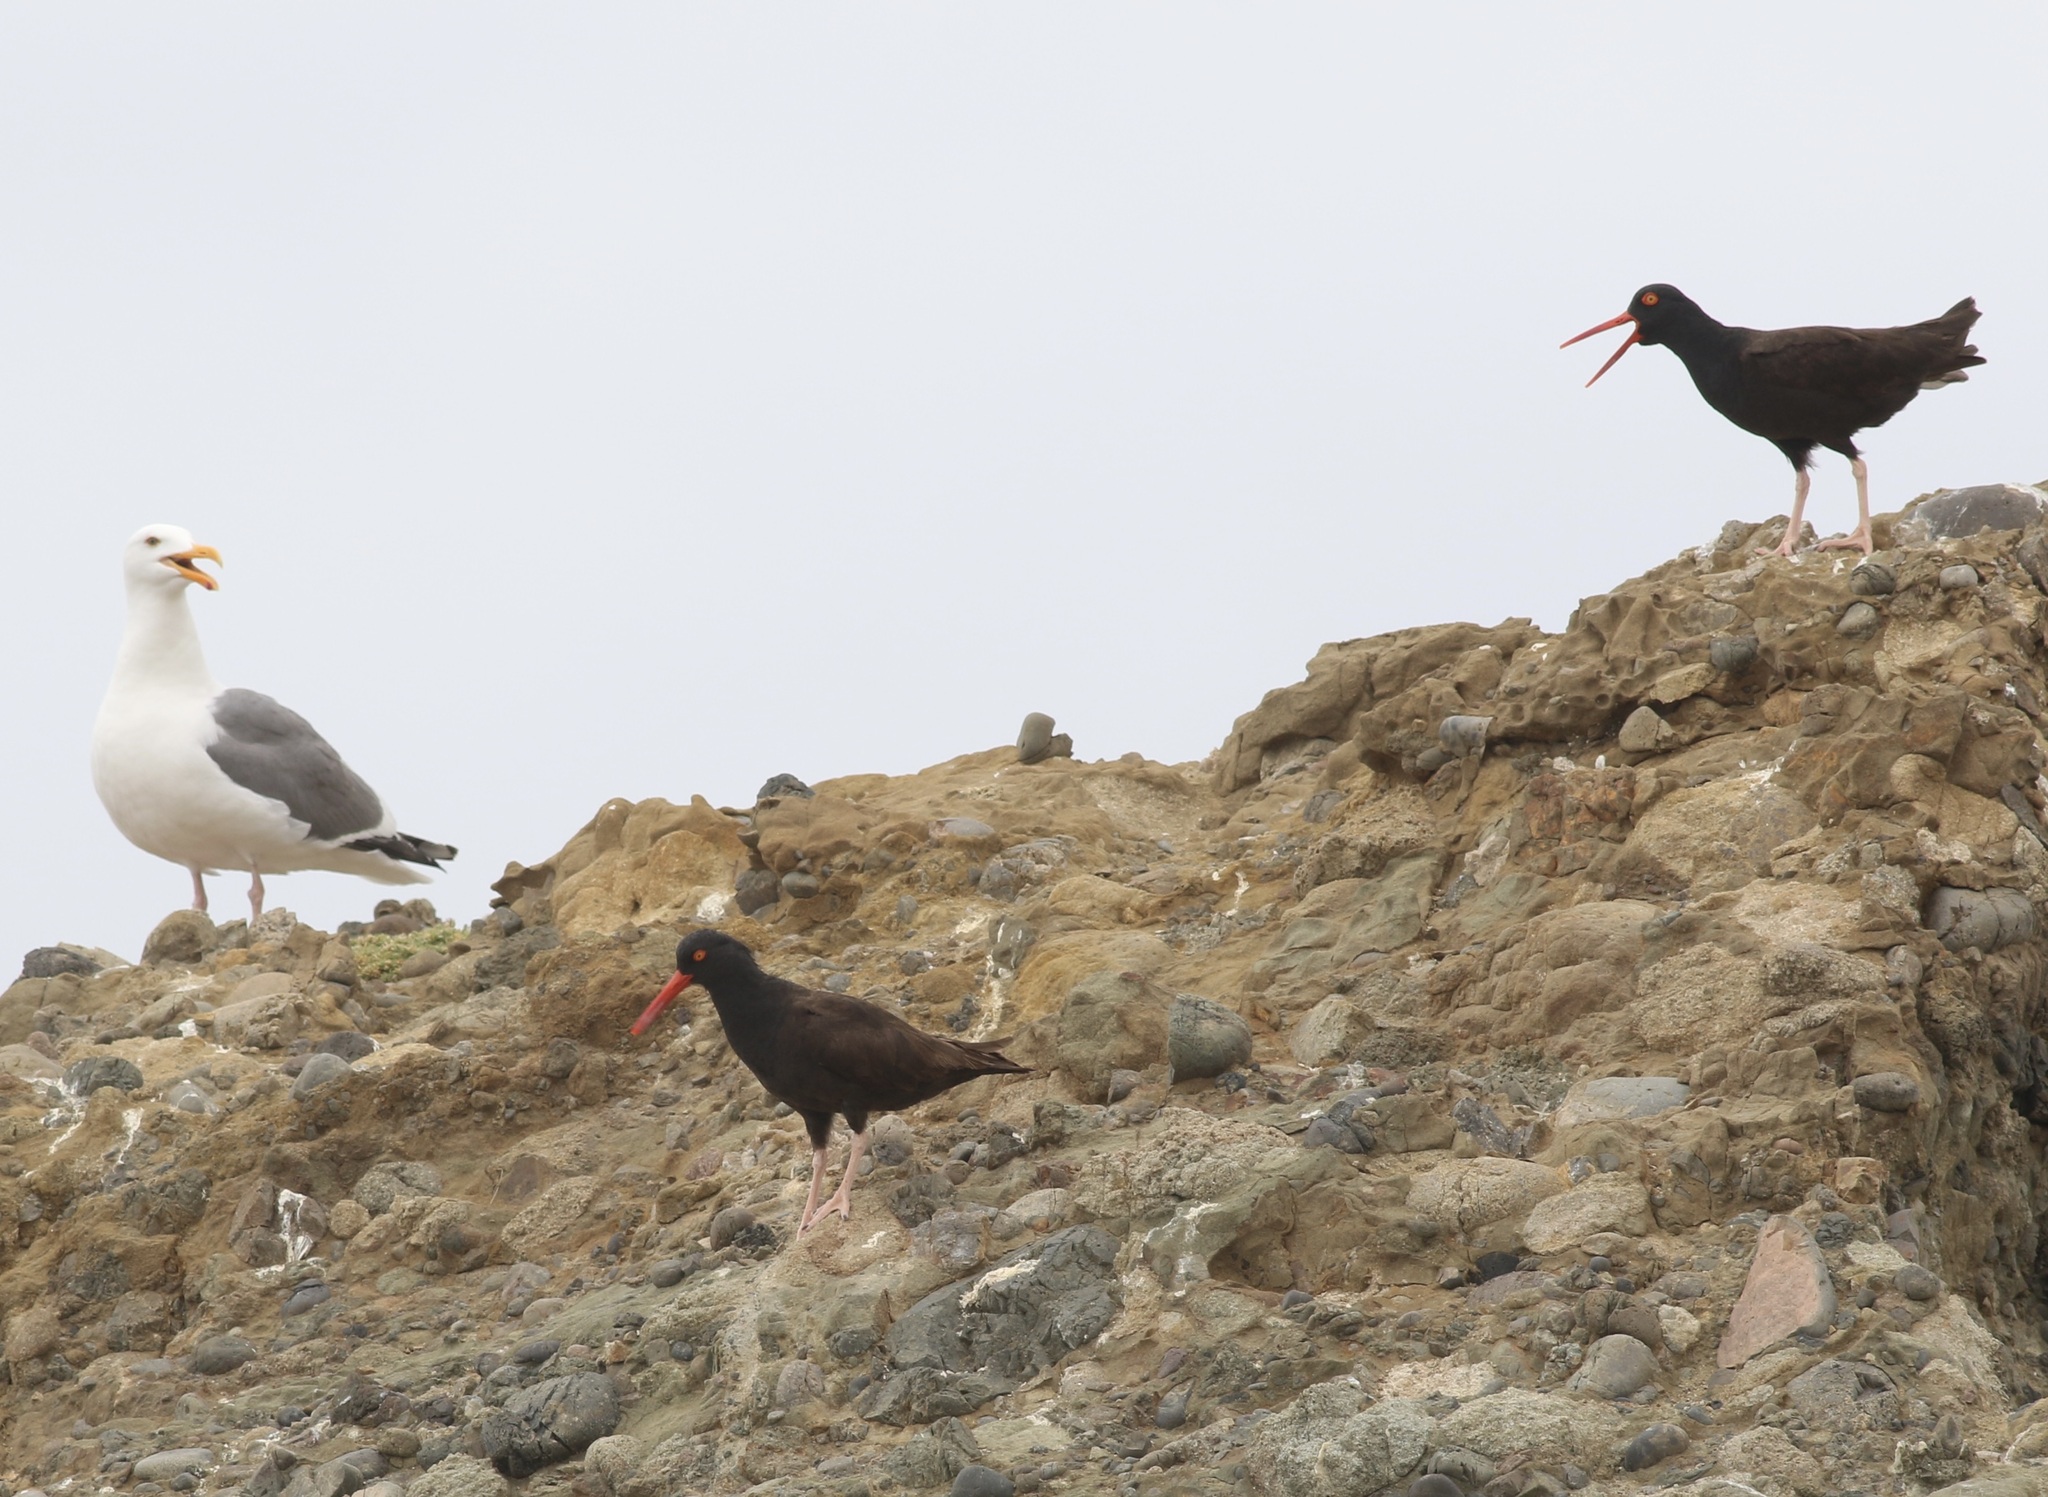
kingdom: Animalia
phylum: Chordata
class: Aves
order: Charadriiformes
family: Haematopodidae
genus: Haematopus
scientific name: Haematopus bachmani
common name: Black oystercatcher
